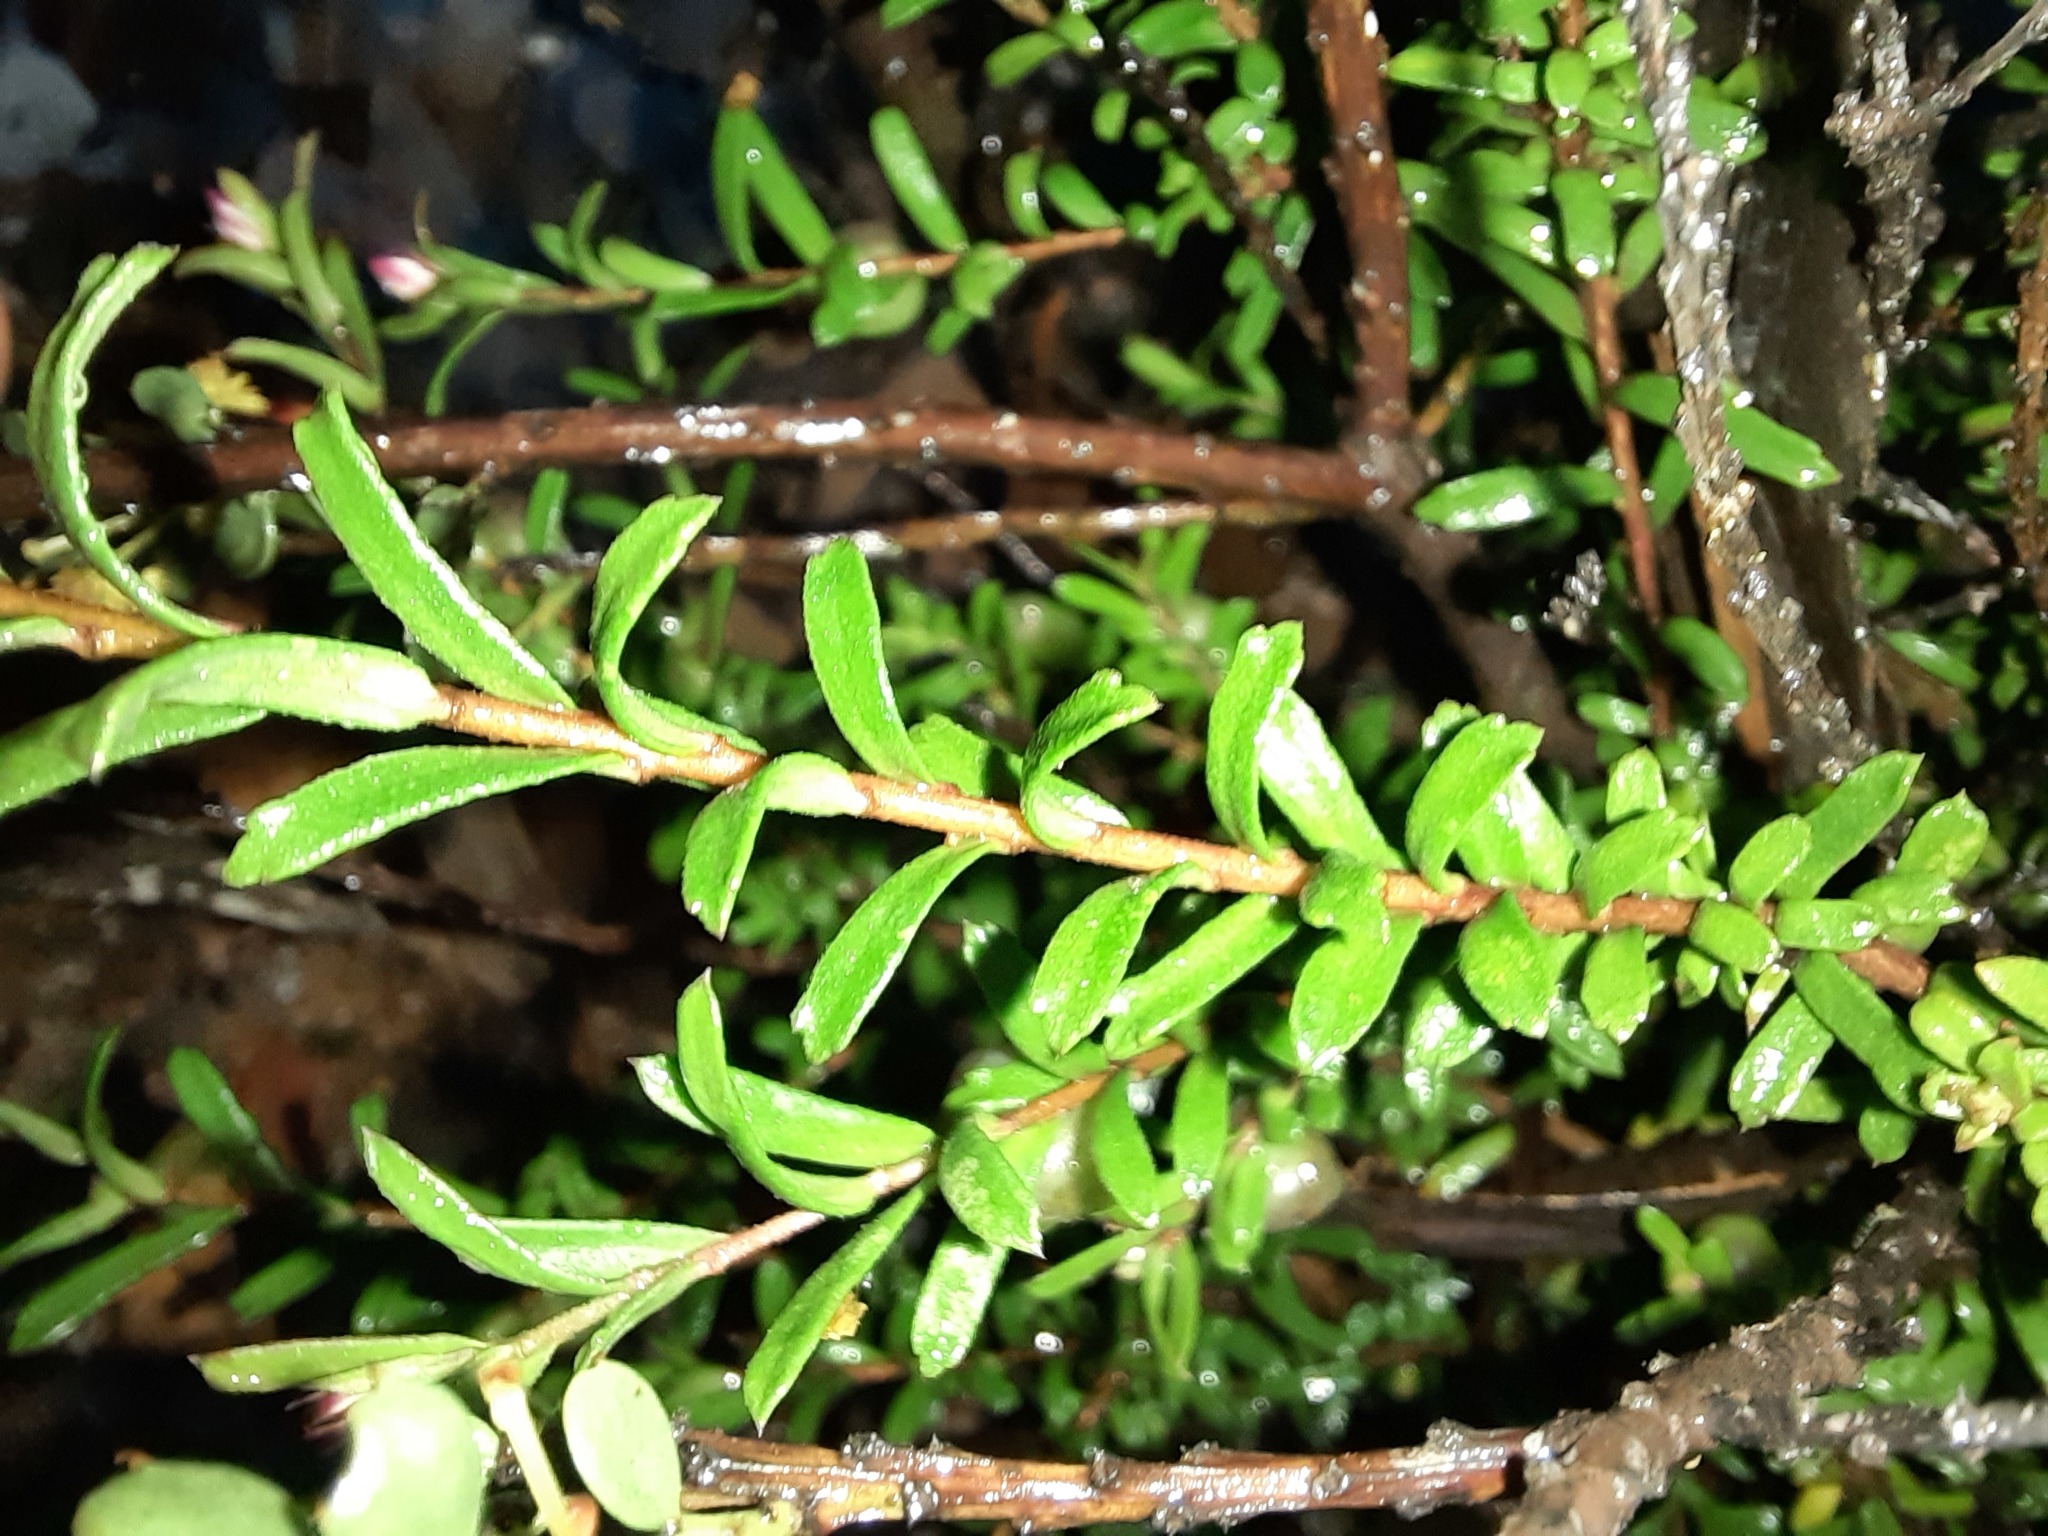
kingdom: Plantae
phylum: Tracheophyta
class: Magnoliopsida
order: Apiales
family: Pittosporaceae
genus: Rhytidosporum
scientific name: Rhytidosporum procumbens
